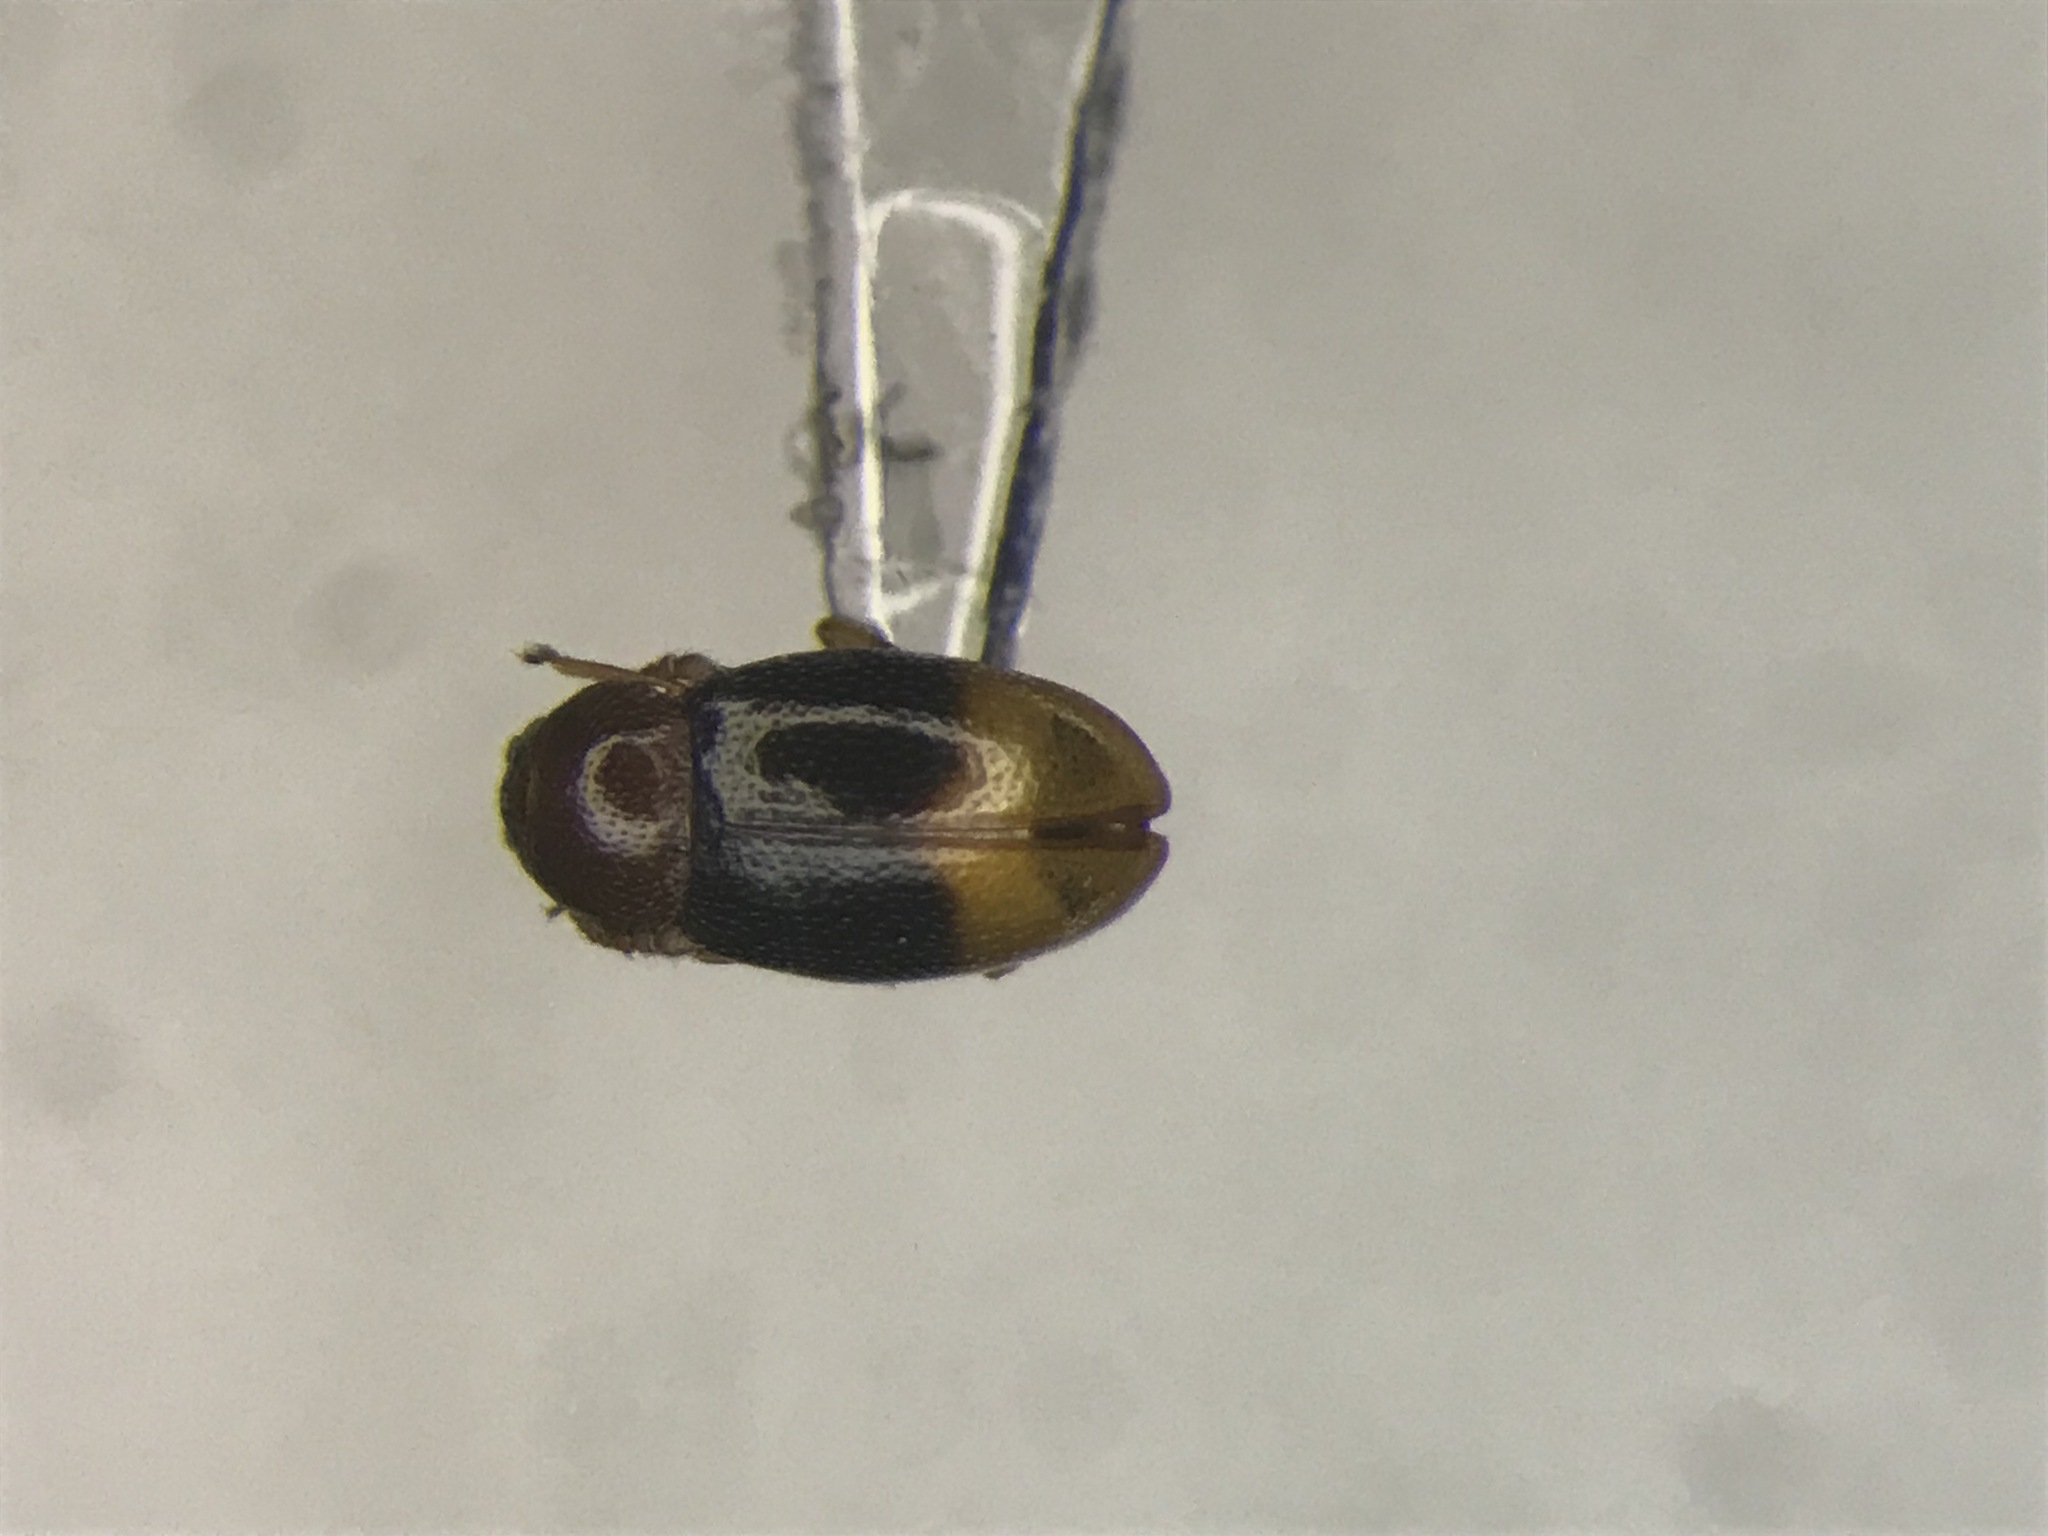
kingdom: Animalia
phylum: Arthropoda
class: Insecta
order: Coleoptera
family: Cryptophagidae
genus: Atomaria
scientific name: Atomaria distincta
